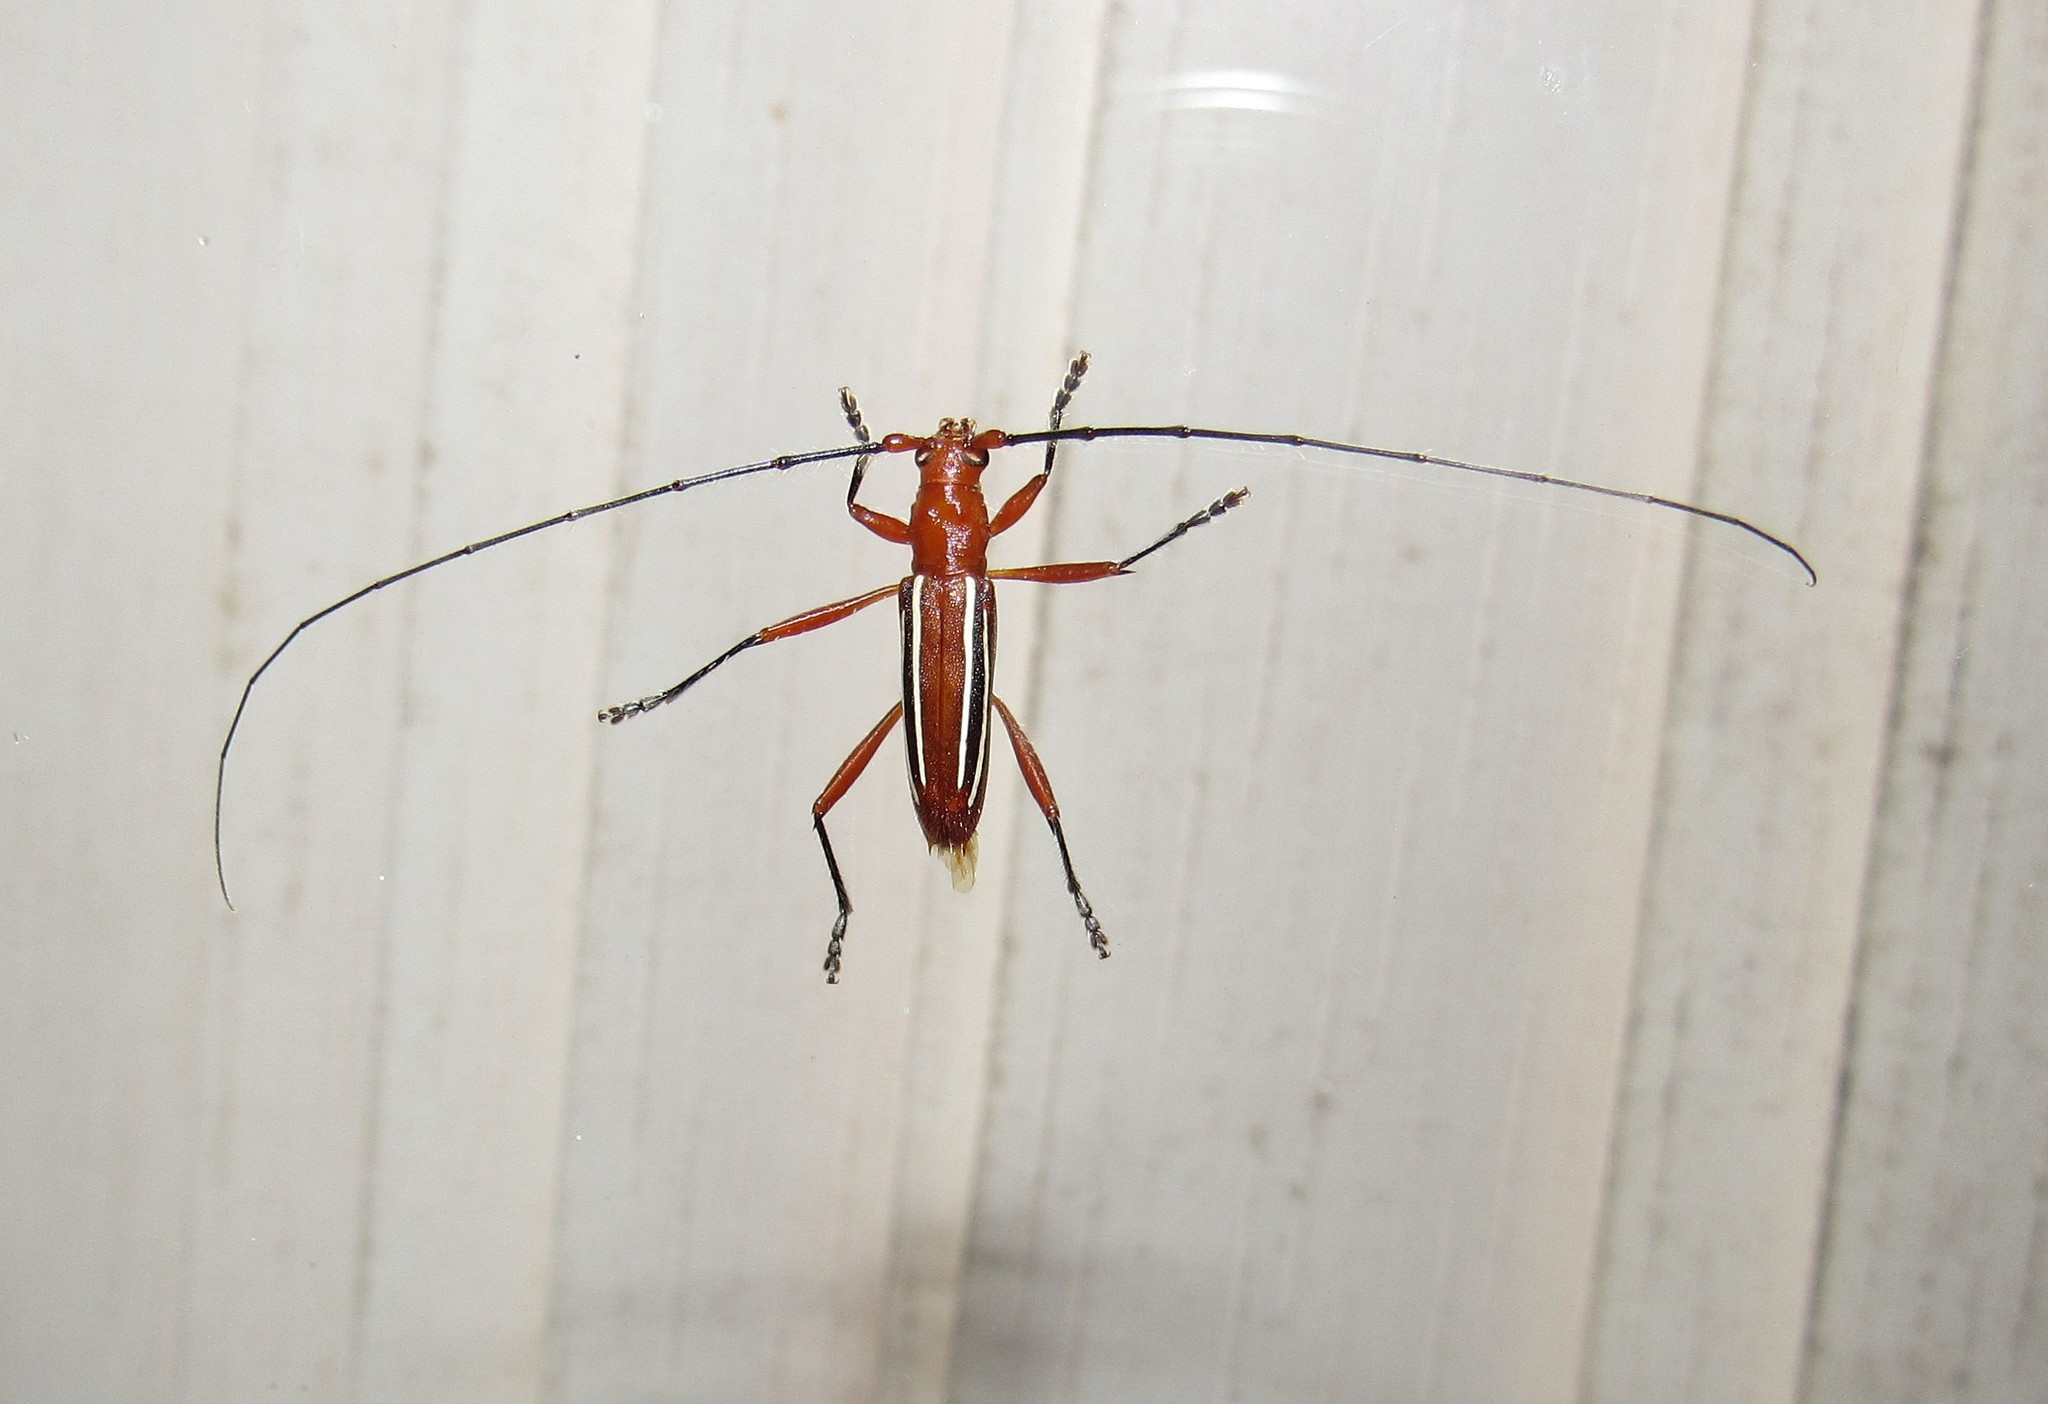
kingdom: Animalia
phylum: Arthropoda
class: Insecta
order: Coleoptera
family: Cerambycidae
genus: Erosida
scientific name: Erosida gratiosa
